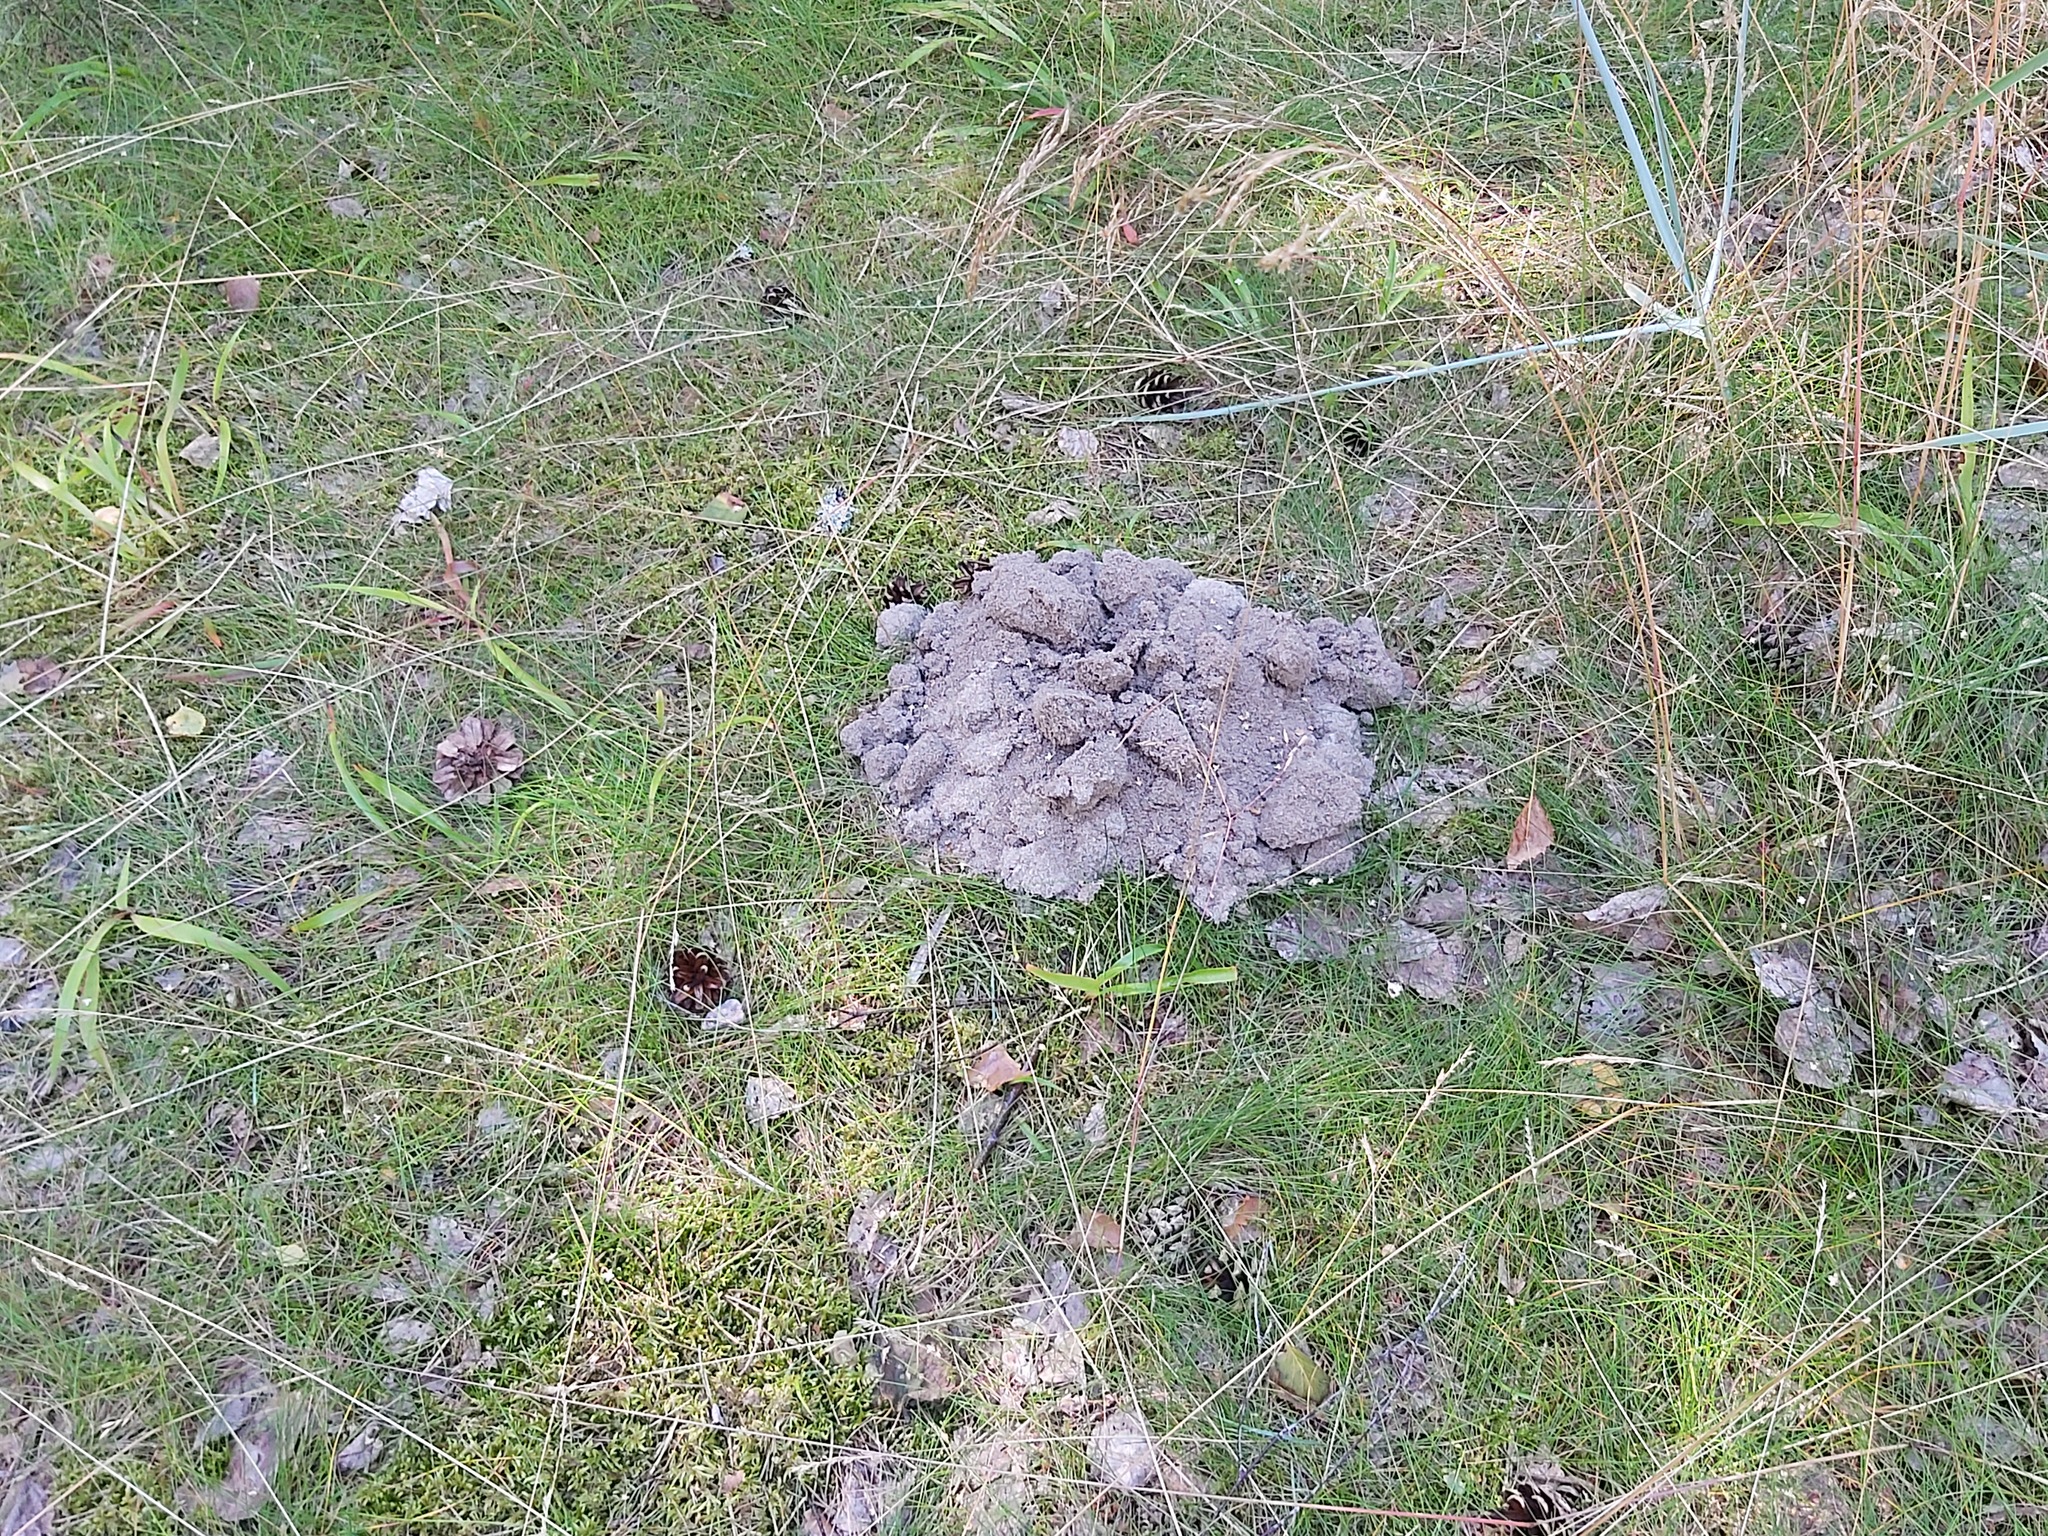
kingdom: Animalia
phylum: Chordata
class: Mammalia
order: Soricomorpha
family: Talpidae
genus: Talpa
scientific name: Talpa europaea
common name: European mole
